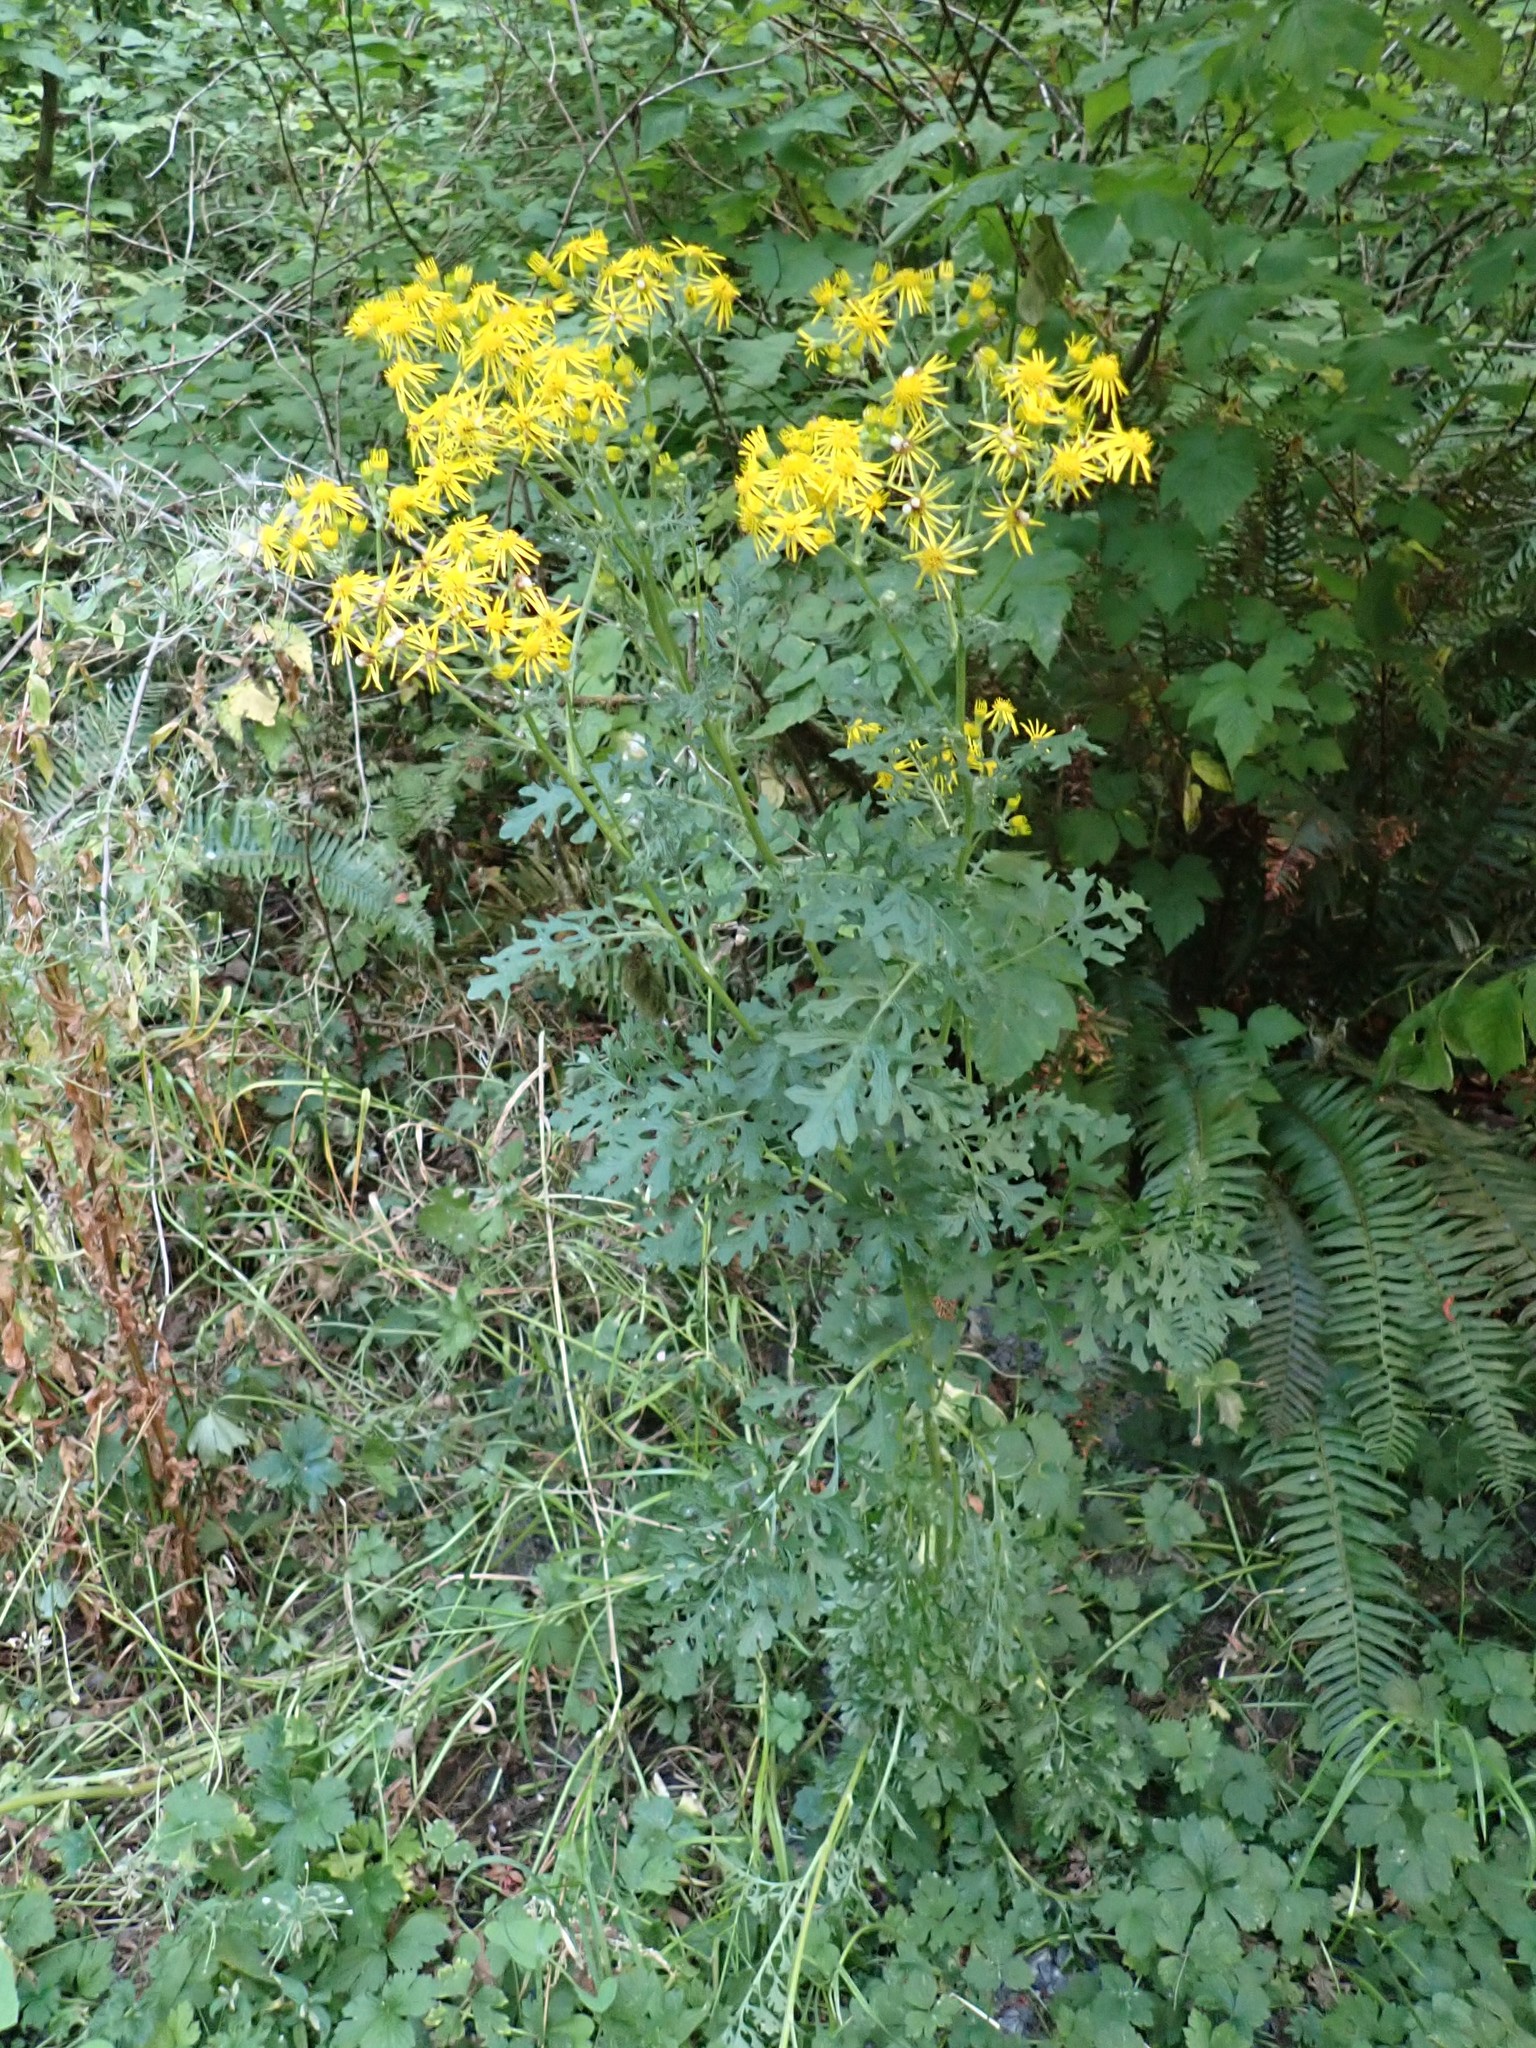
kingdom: Plantae
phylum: Tracheophyta
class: Magnoliopsida
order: Asterales
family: Asteraceae
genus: Jacobaea
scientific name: Jacobaea vulgaris
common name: Stinking willie
